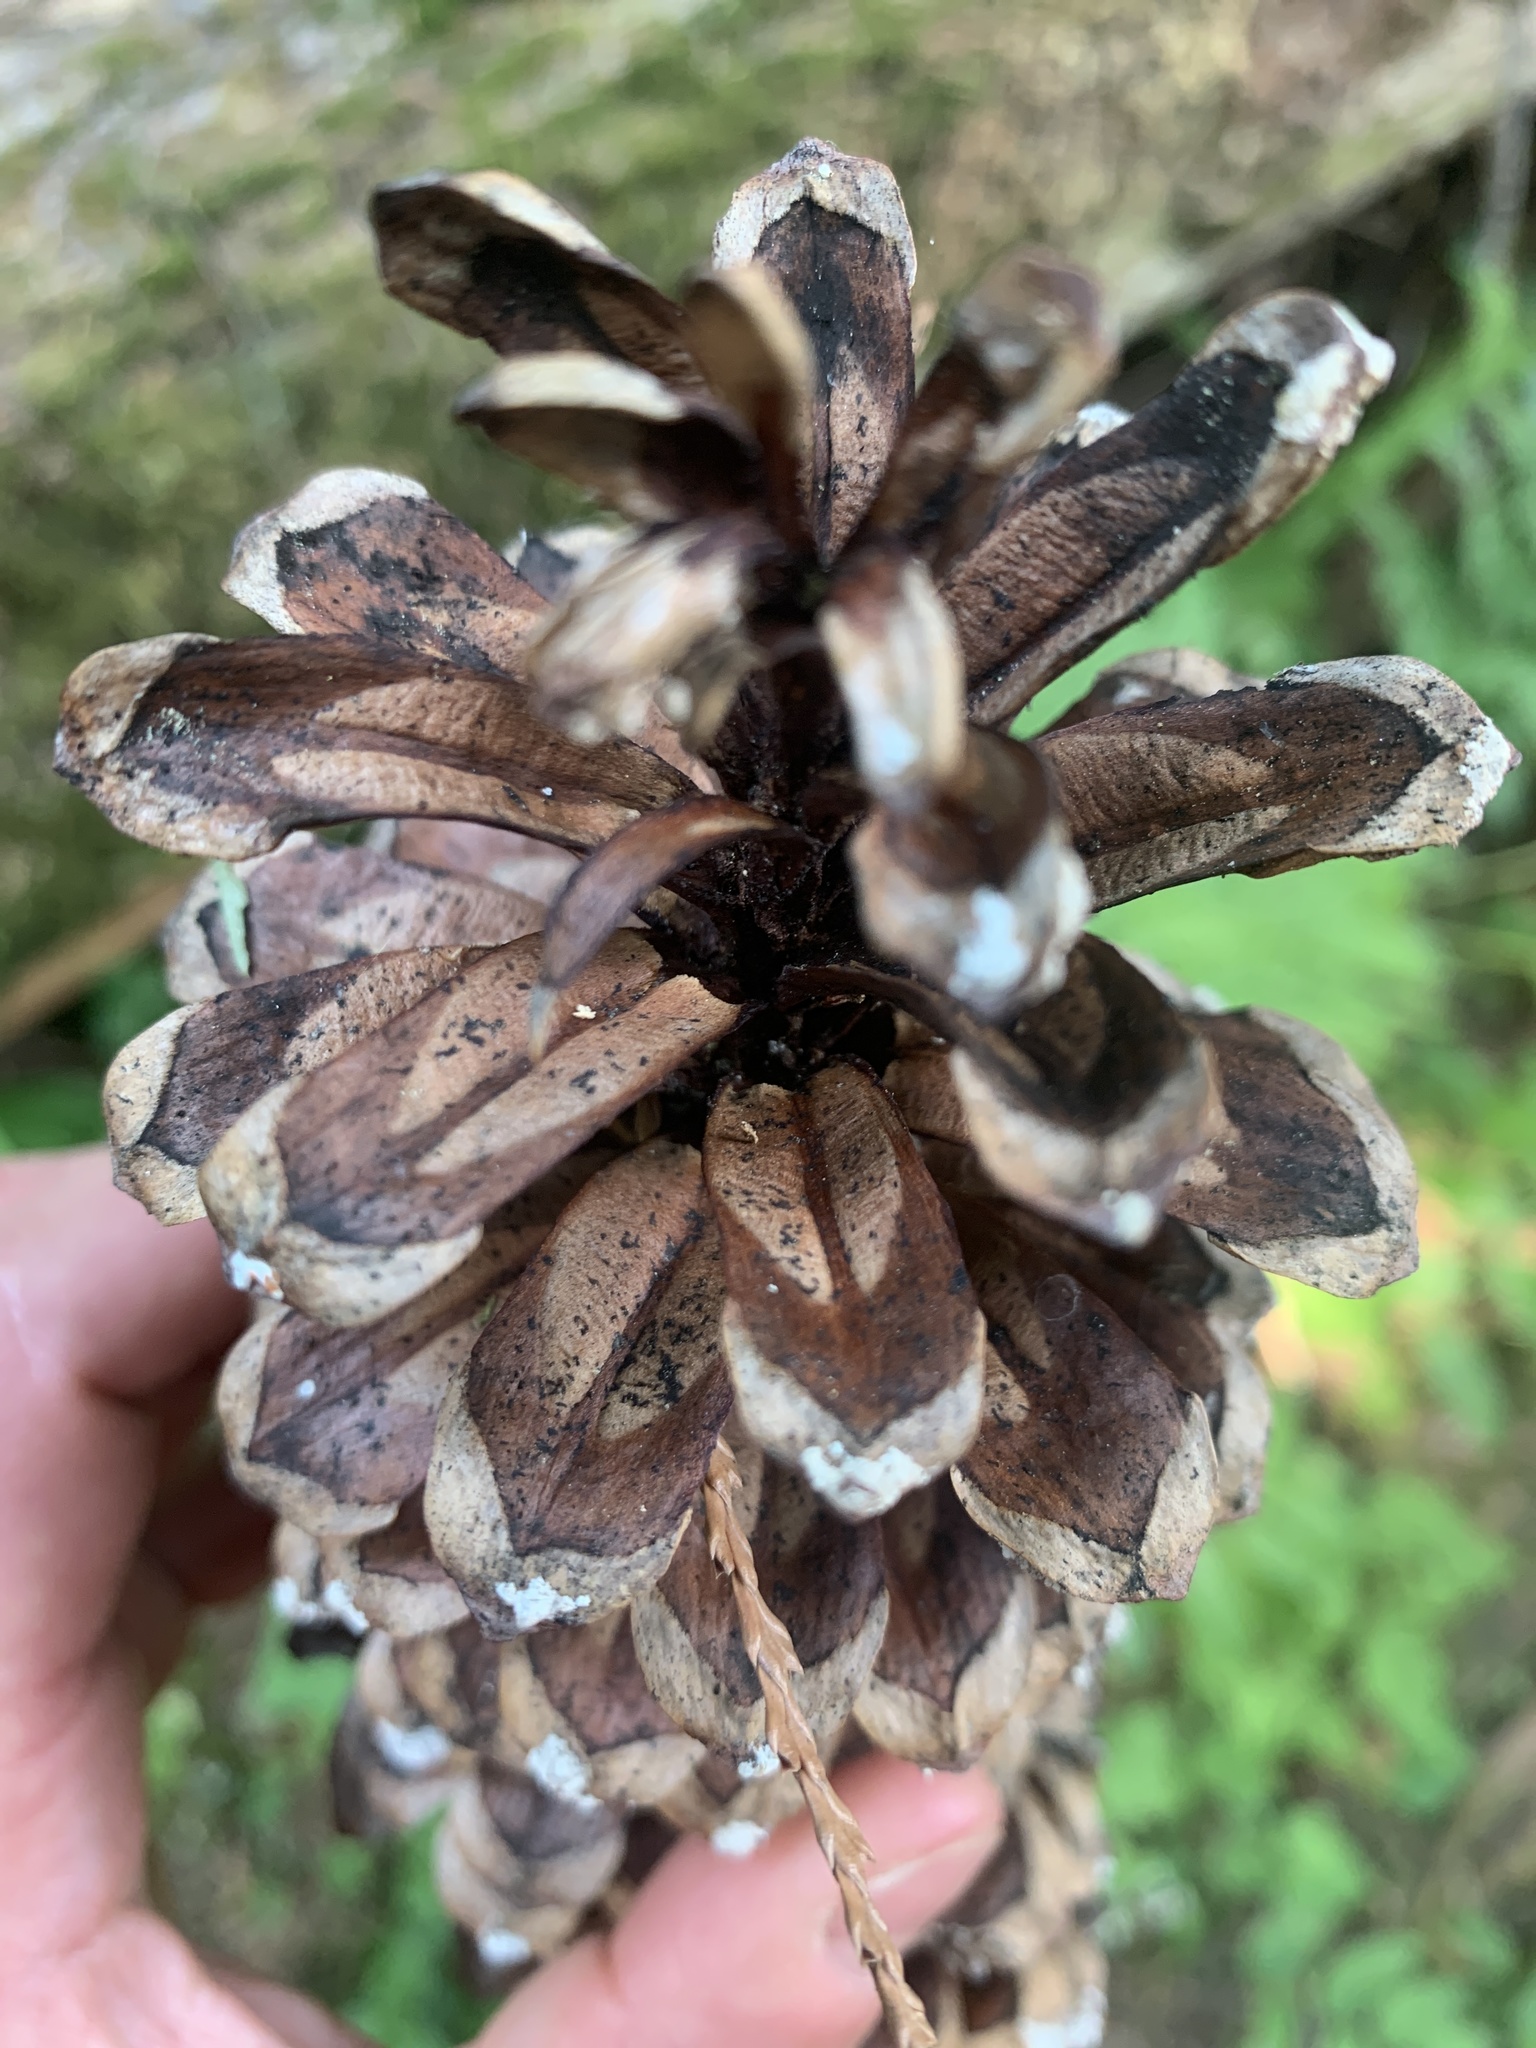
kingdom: Plantae
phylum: Tracheophyta
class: Pinopsida
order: Pinales
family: Pinaceae
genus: Pinus
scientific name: Pinus monticola
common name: Western white pine
